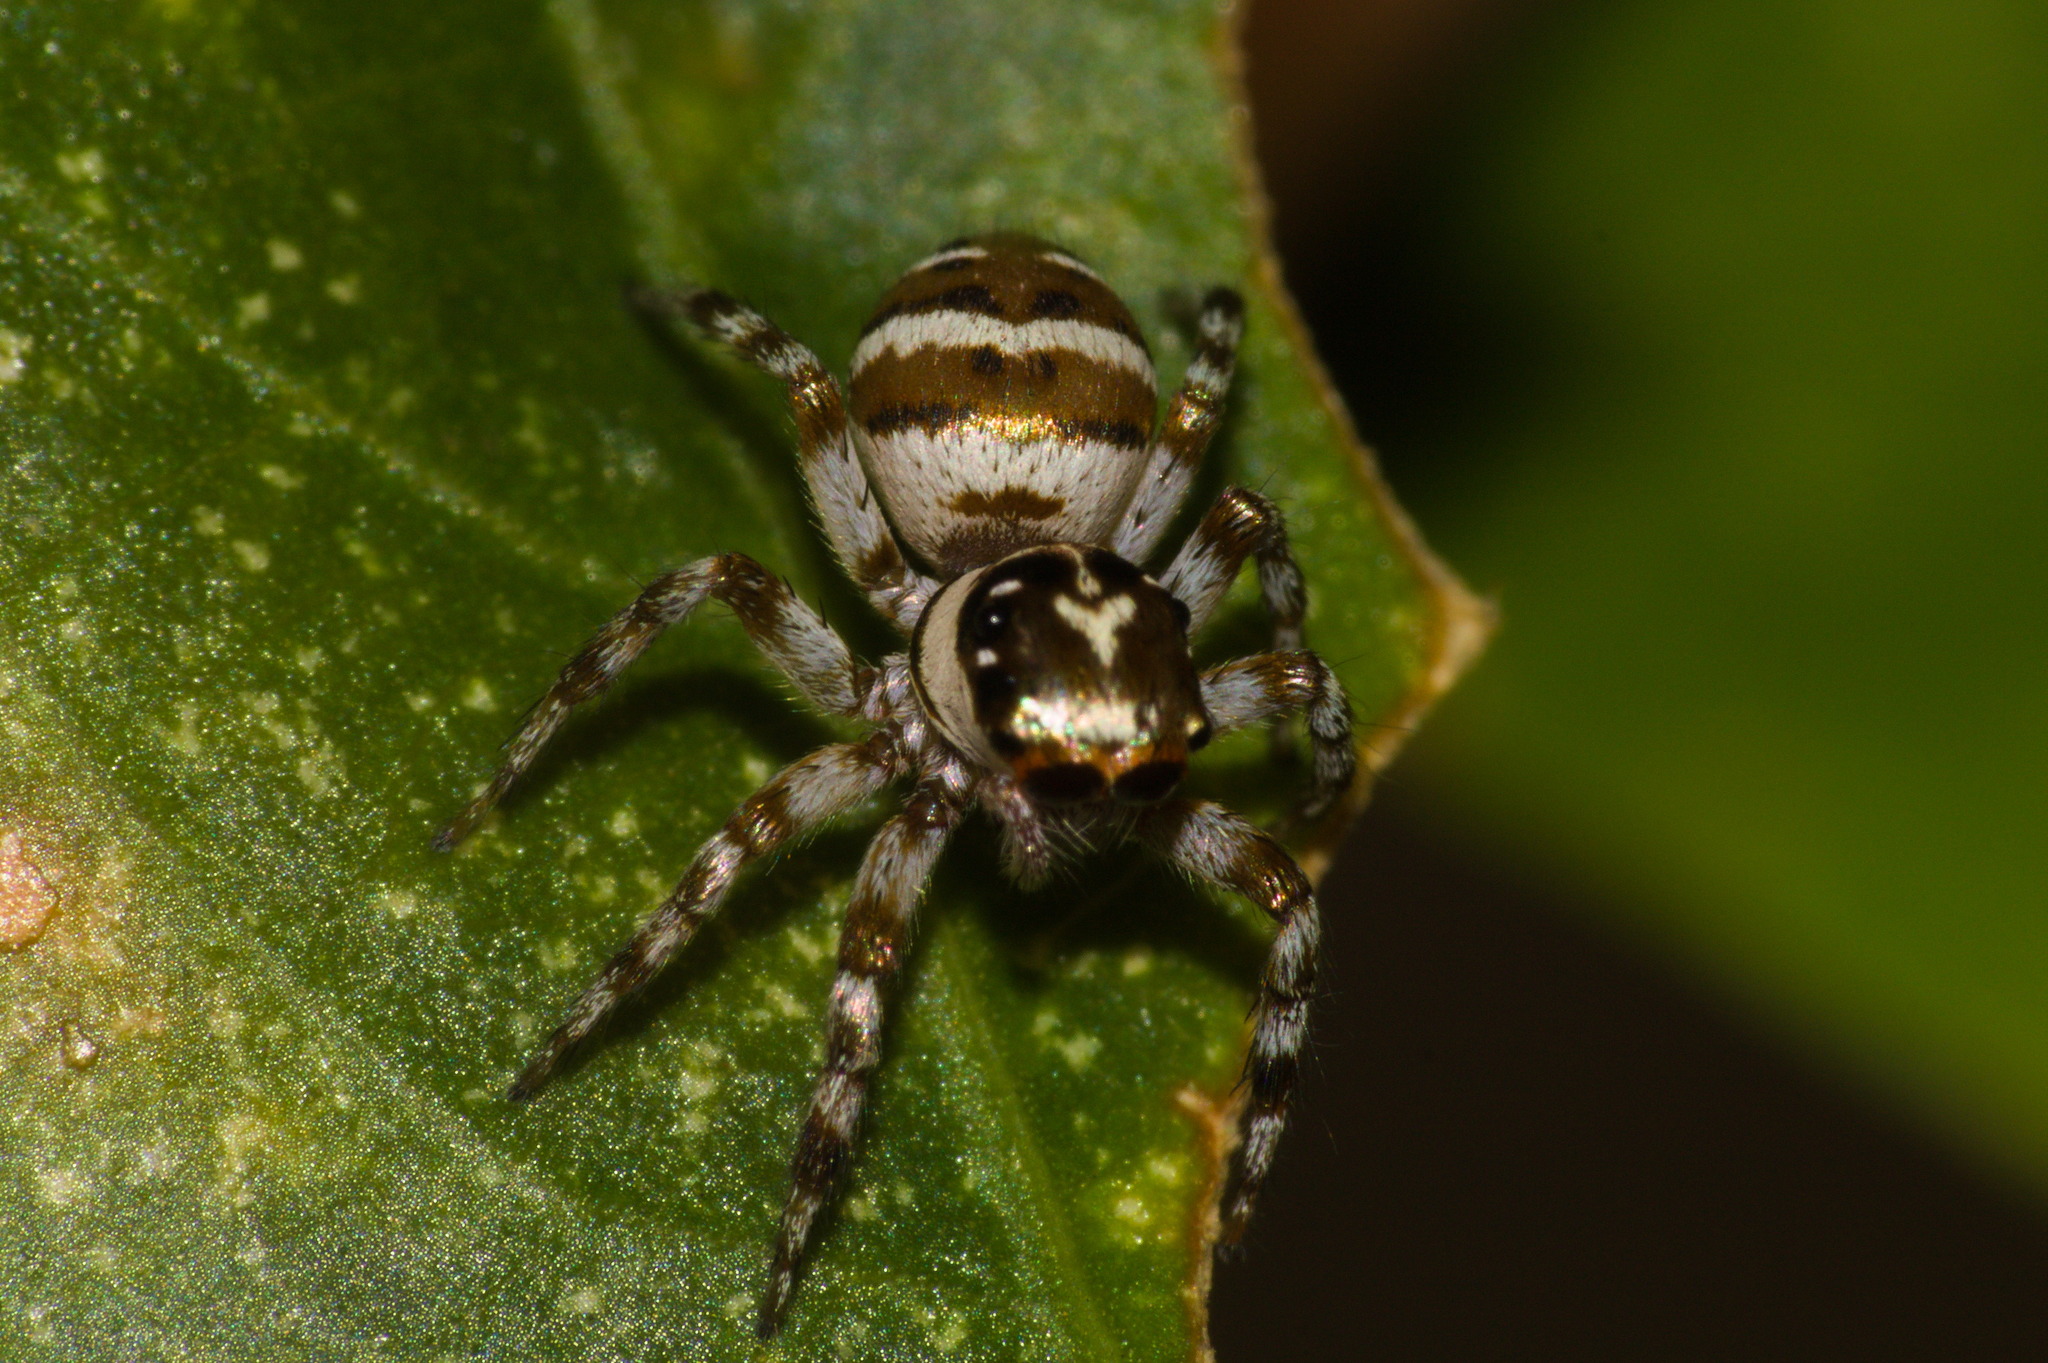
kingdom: Animalia
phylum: Arthropoda
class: Arachnida
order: Araneae
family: Salticidae
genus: Philira
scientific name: Philira micans
